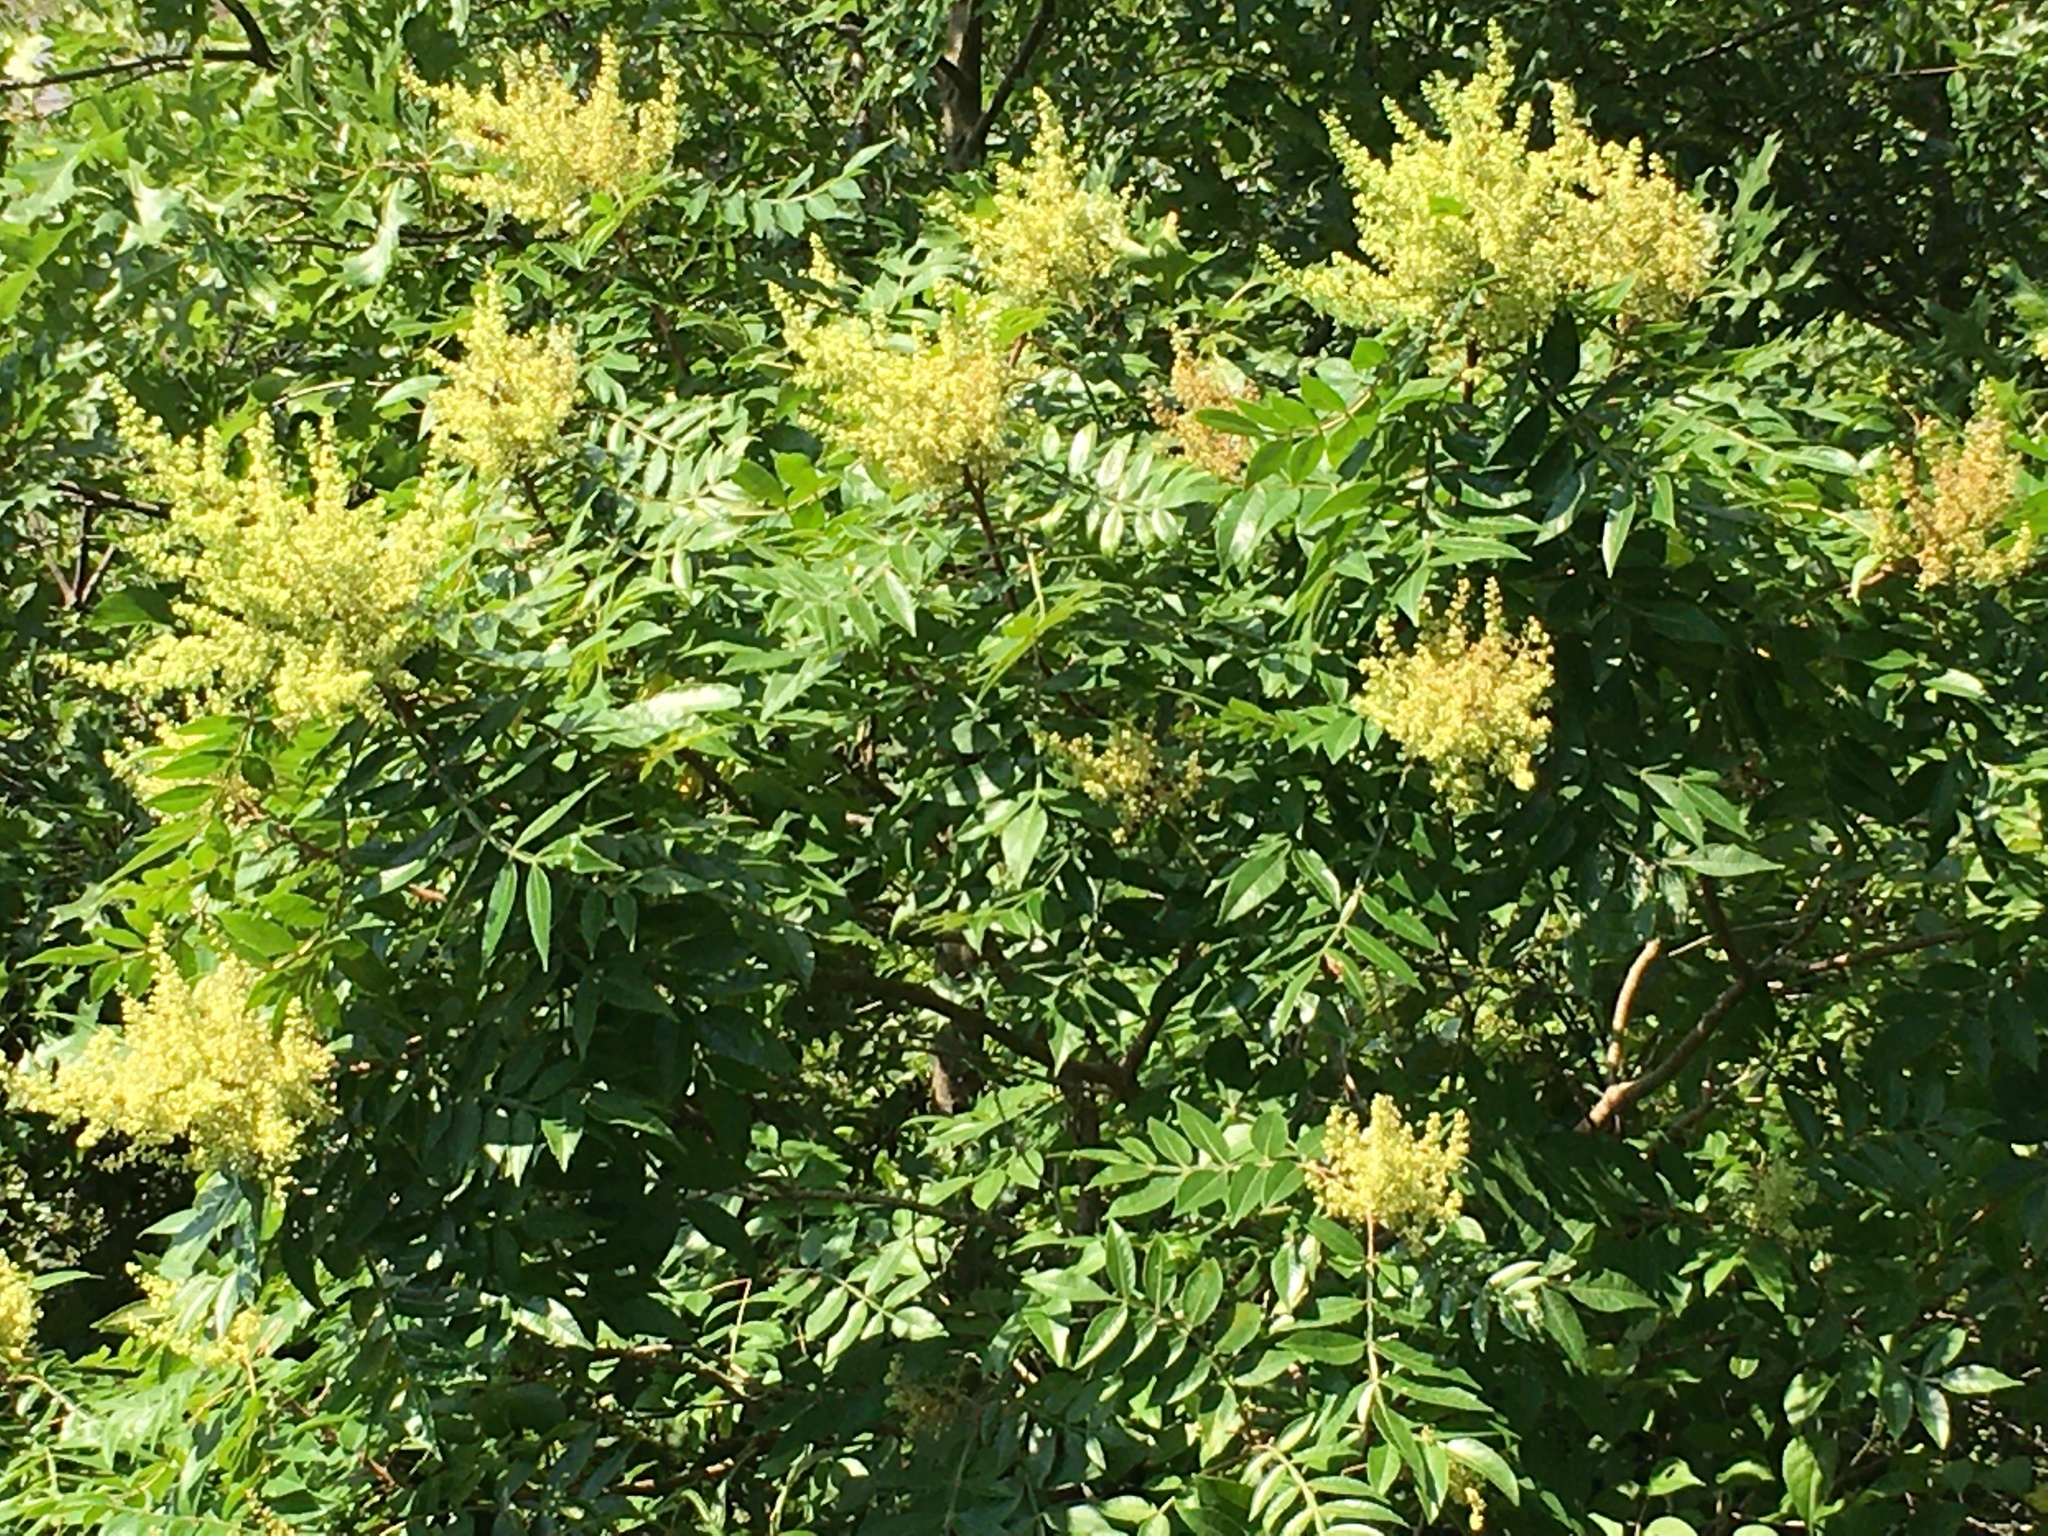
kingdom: Plantae
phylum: Tracheophyta
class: Magnoliopsida
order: Sapindales
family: Anacardiaceae
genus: Rhus
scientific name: Rhus copallina
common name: Shining sumac
